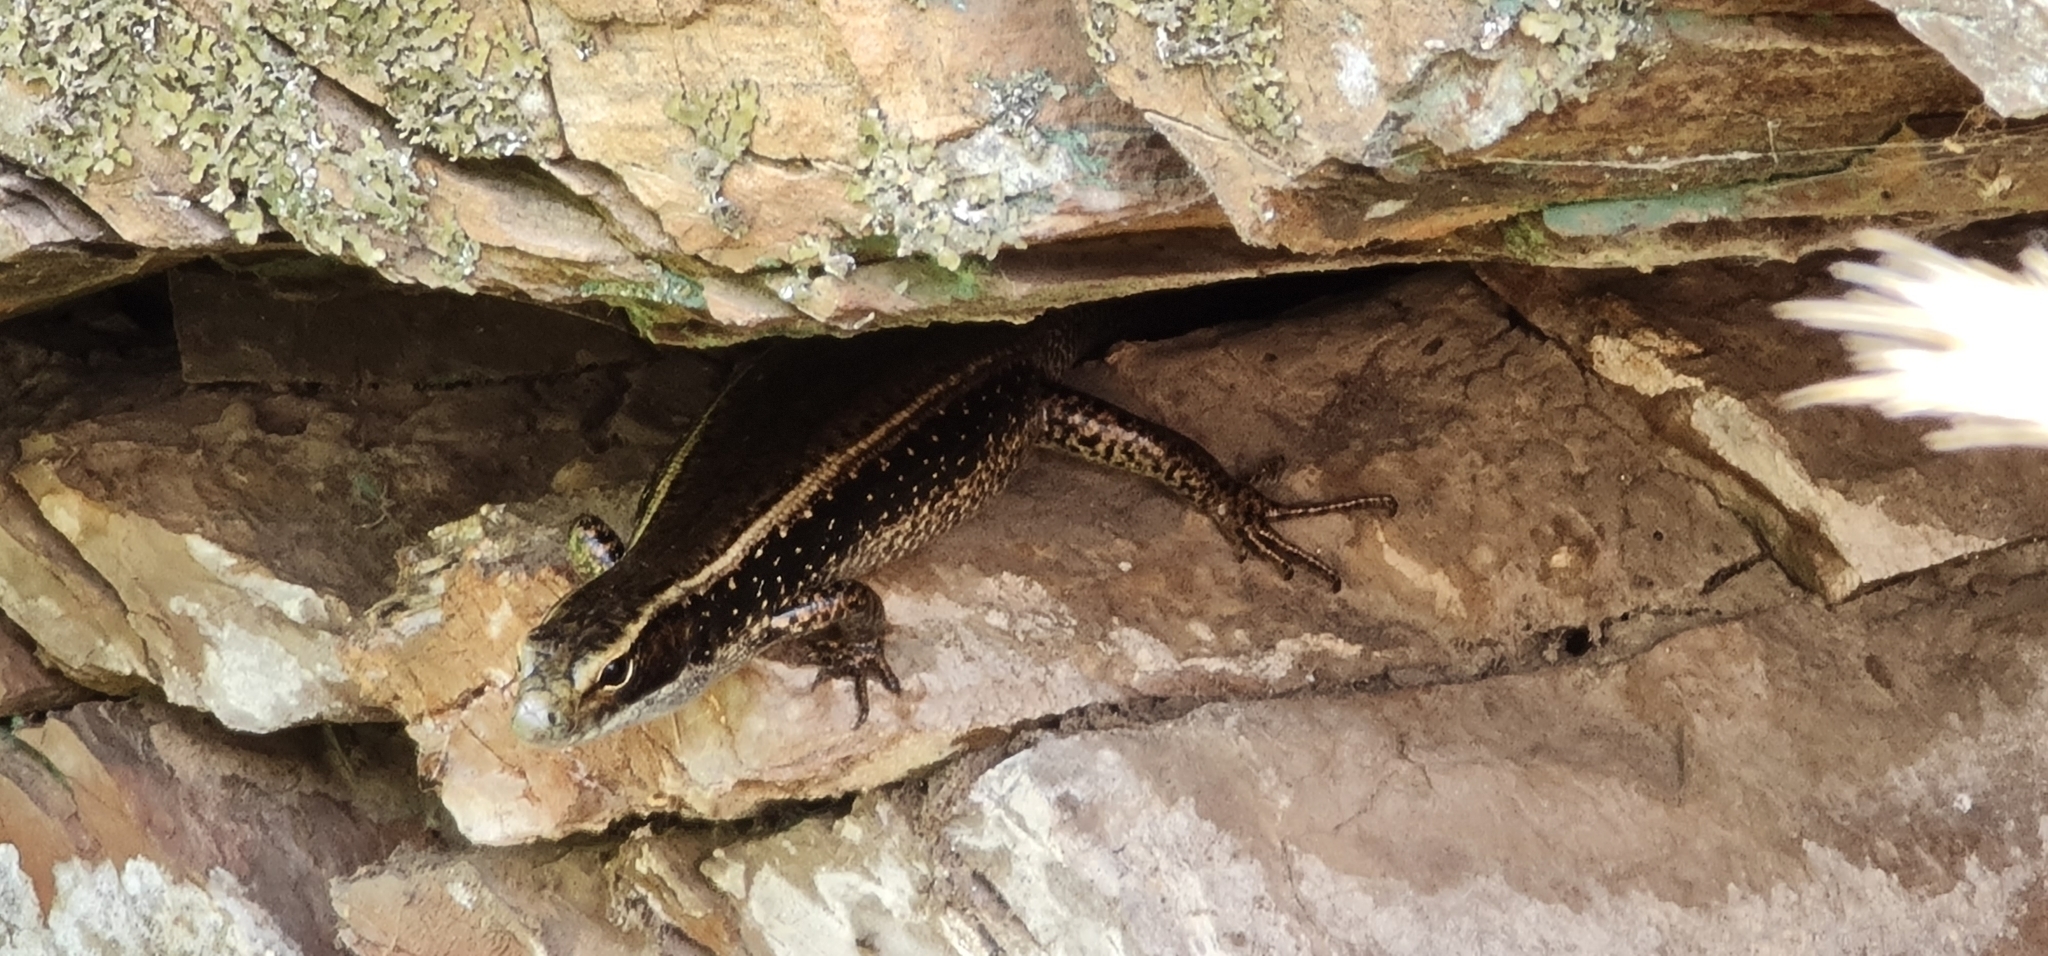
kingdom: Animalia
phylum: Chordata
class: Squamata
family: Scincidae
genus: Eulamprus
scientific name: Eulamprus quoyii
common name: Eastern water skink
